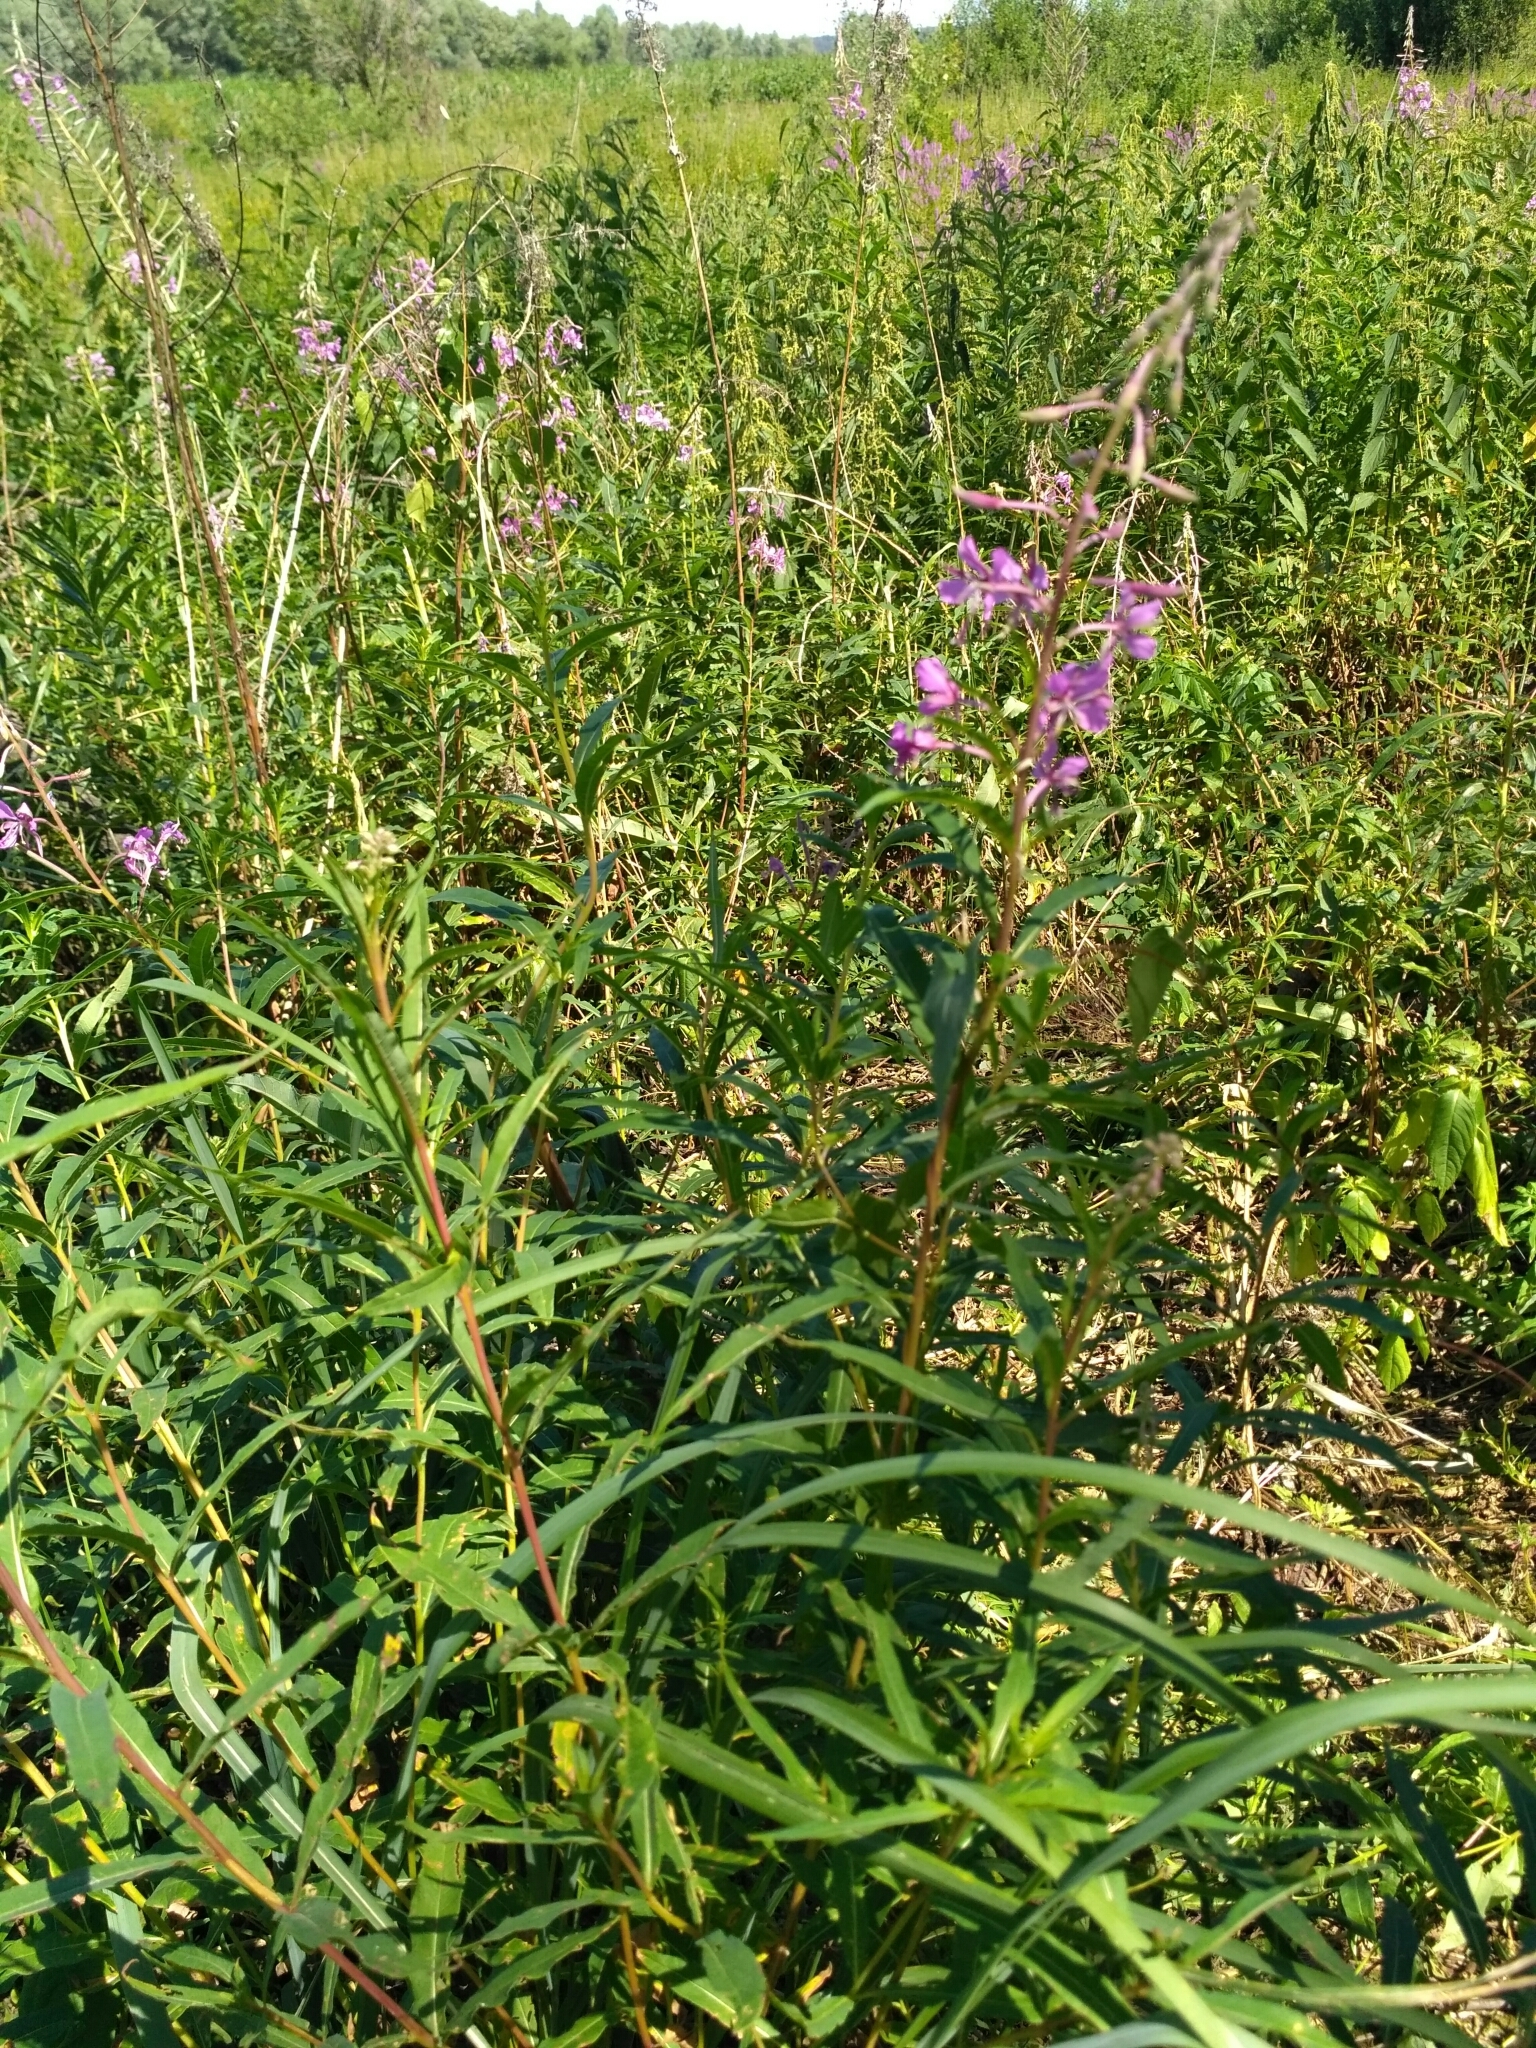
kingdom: Plantae
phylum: Tracheophyta
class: Magnoliopsida
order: Myrtales
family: Onagraceae
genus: Chamaenerion
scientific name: Chamaenerion angustifolium
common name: Fireweed
